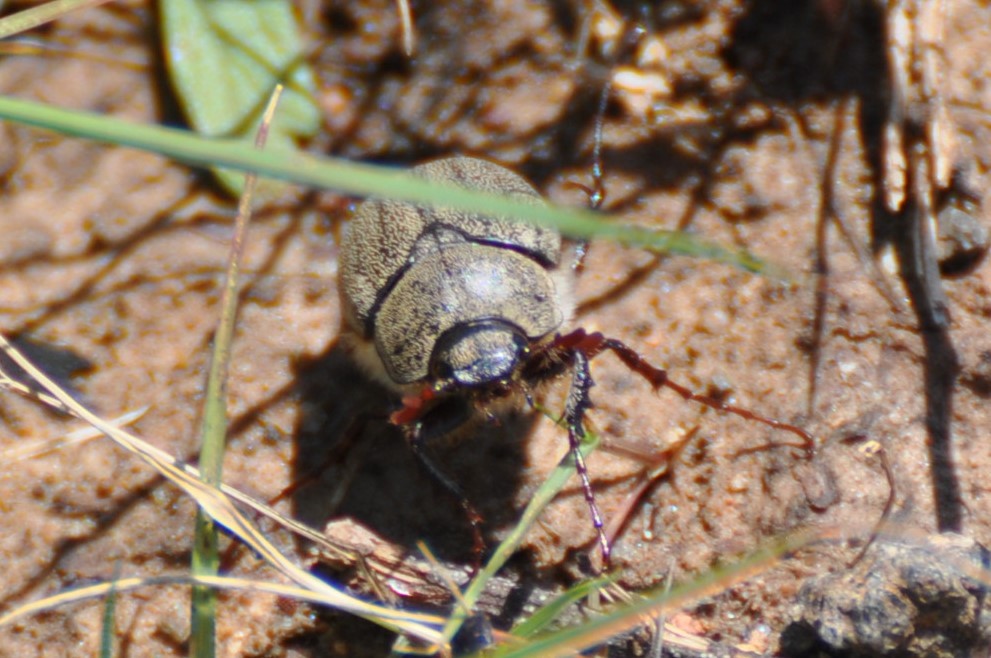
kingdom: Animalia
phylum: Arthropoda
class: Insecta
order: Coleoptera
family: Scarabaeidae
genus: Phyllophaga
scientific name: Phyllophaga lanceolata
